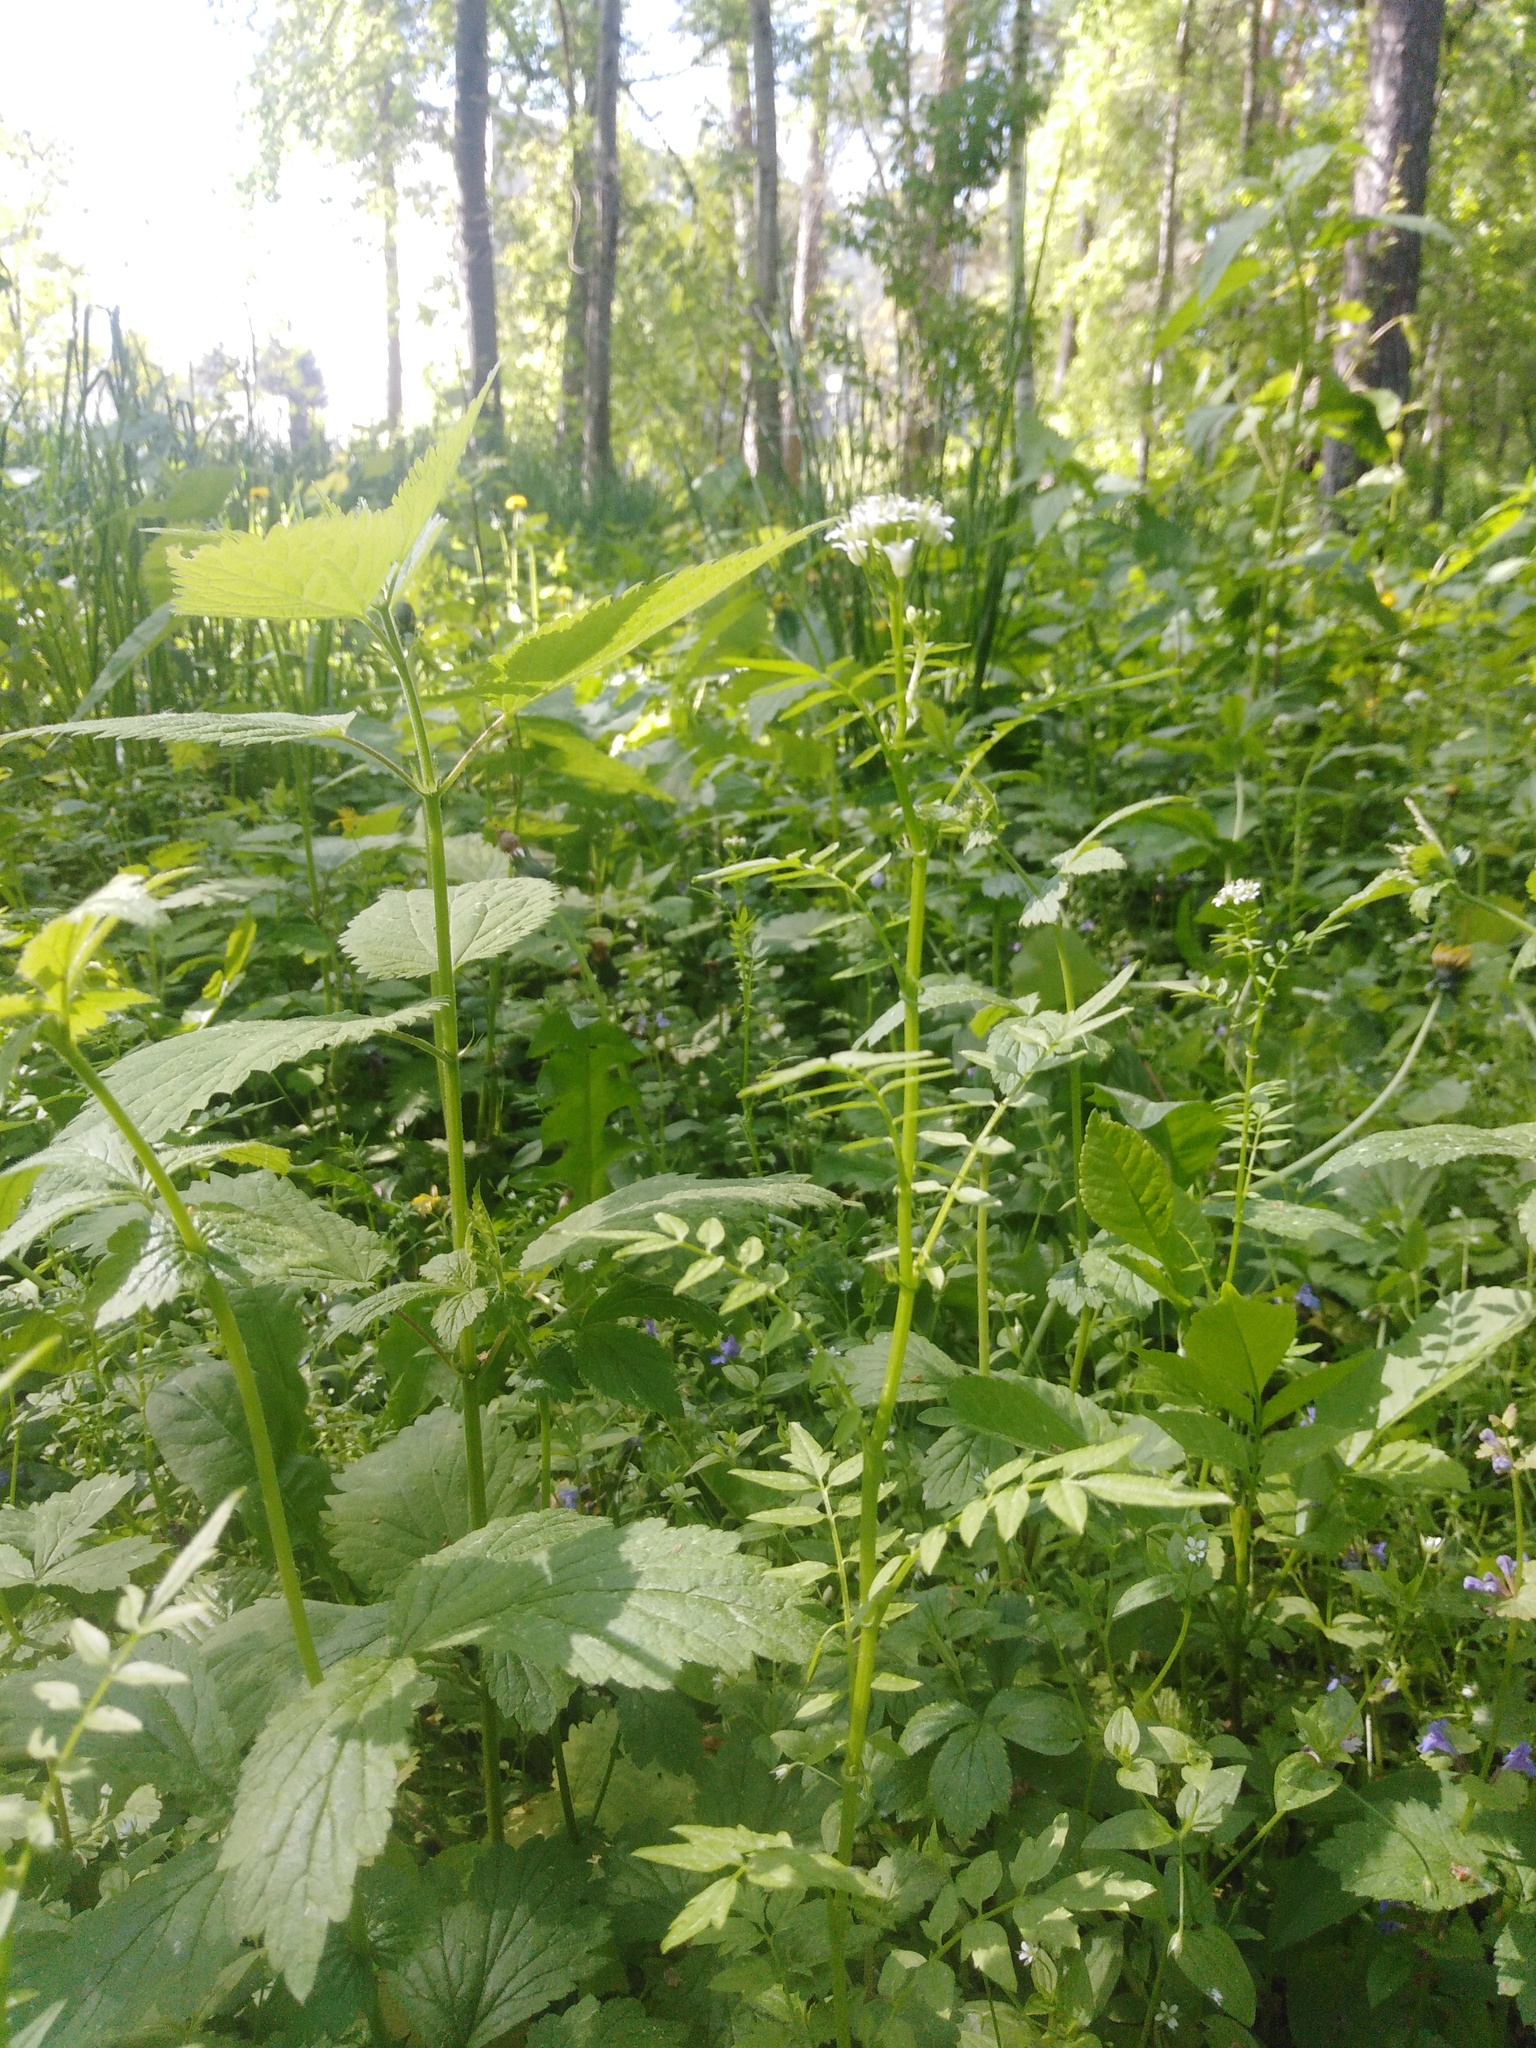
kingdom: Plantae
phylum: Tracheophyta
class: Magnoliopsida
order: Brassicales
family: Brassicaceae
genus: Cardamine
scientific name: Cardamine impatiens
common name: Narrow-leaved bitter-cress
